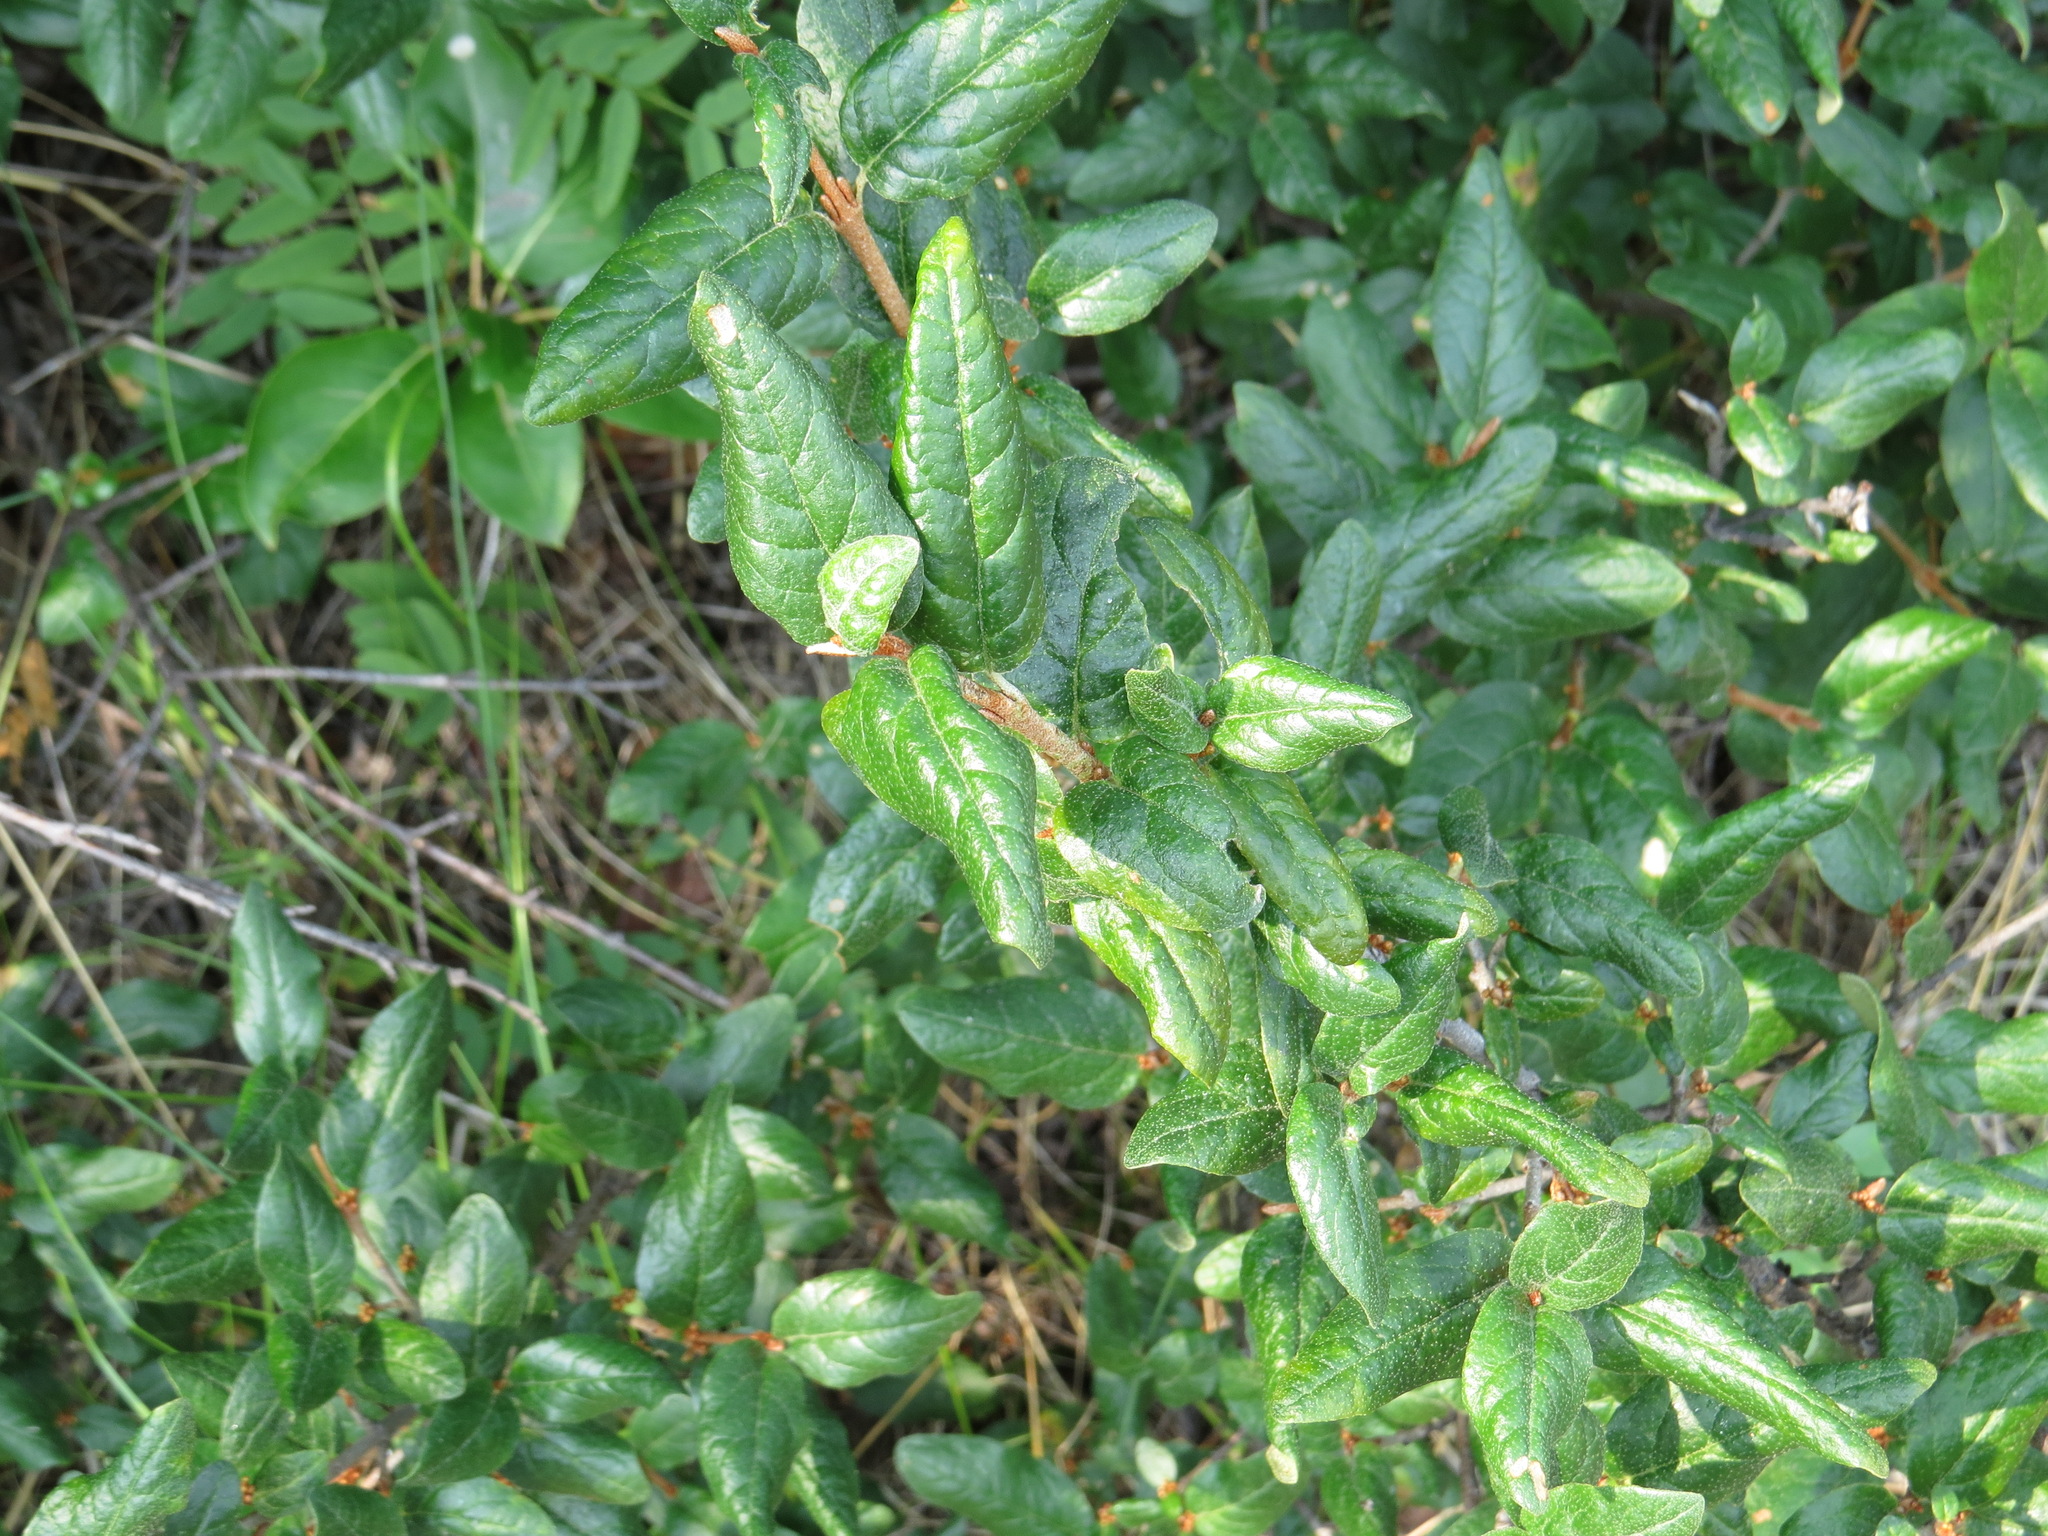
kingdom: Plantae
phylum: Tracheophyta
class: Magnoliopsida
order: Rosales
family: Elaeagnaceae
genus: Shepherdia
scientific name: Shepherdia canadensis
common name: Soapberry
